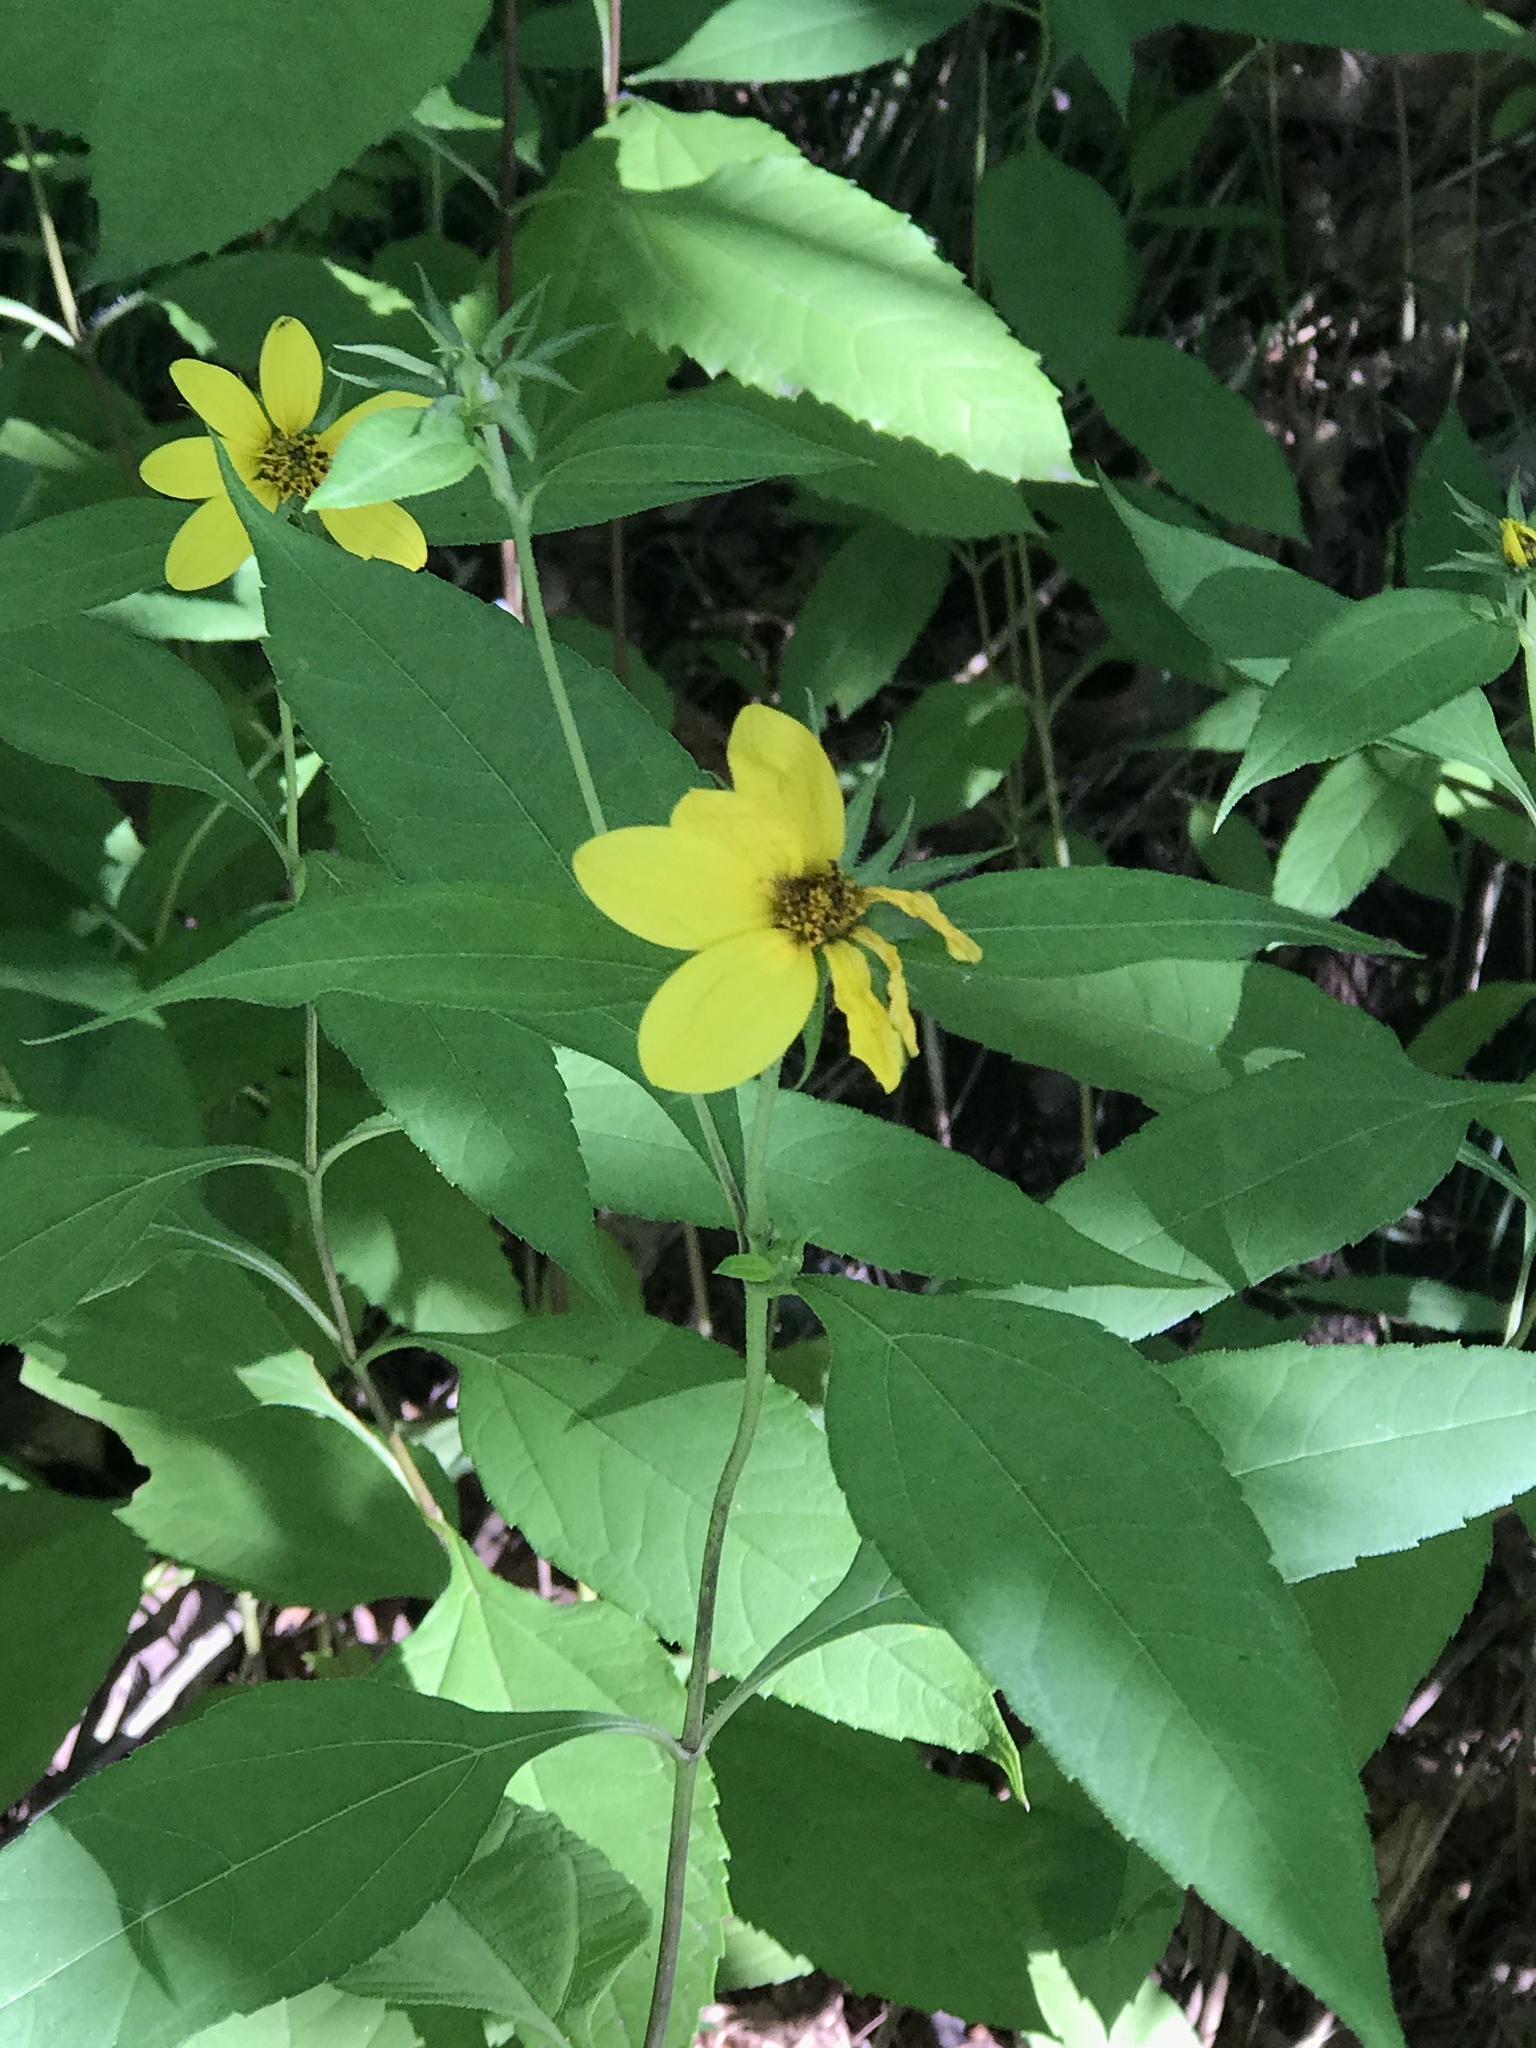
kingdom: Plantae
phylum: Tracheophyta
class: Magnoliopsida
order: Asterales
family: Asteraceae
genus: Helianthus
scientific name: Helianthus decapetalus
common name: Thin-leaved sunflower
